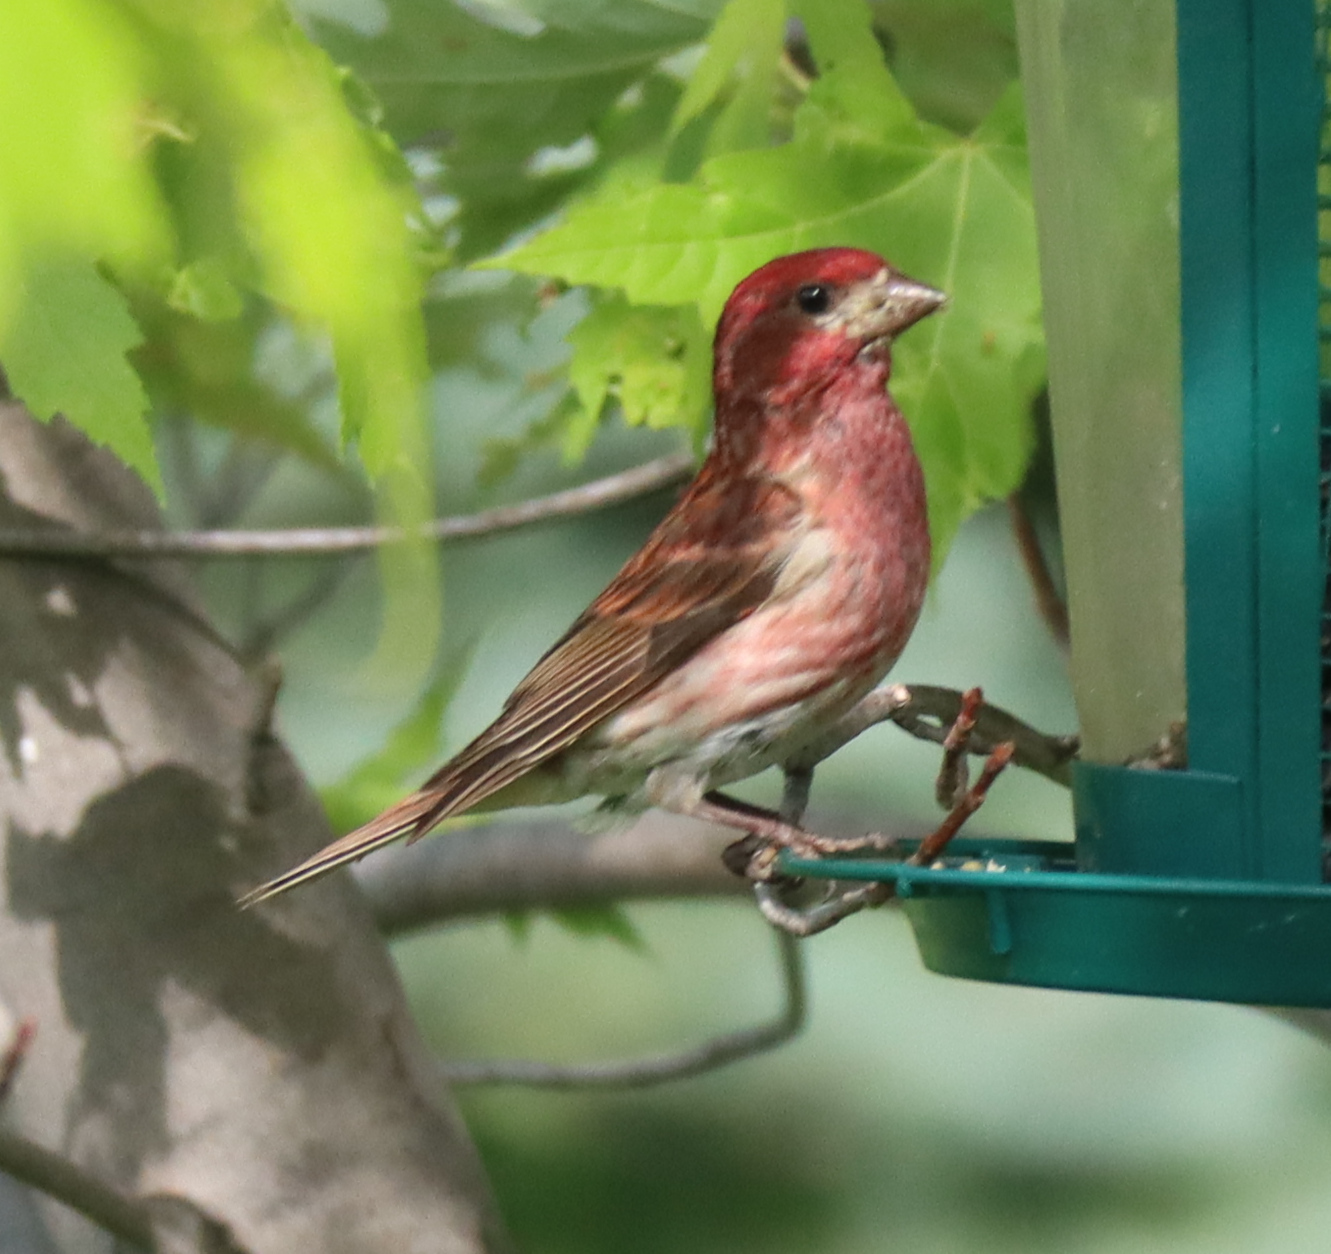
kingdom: Animalia
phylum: Chordata
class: Aves
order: Passeriformes
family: Fringillidae
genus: Haemorhous
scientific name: Haemorhous purpureus
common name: Purple finch
